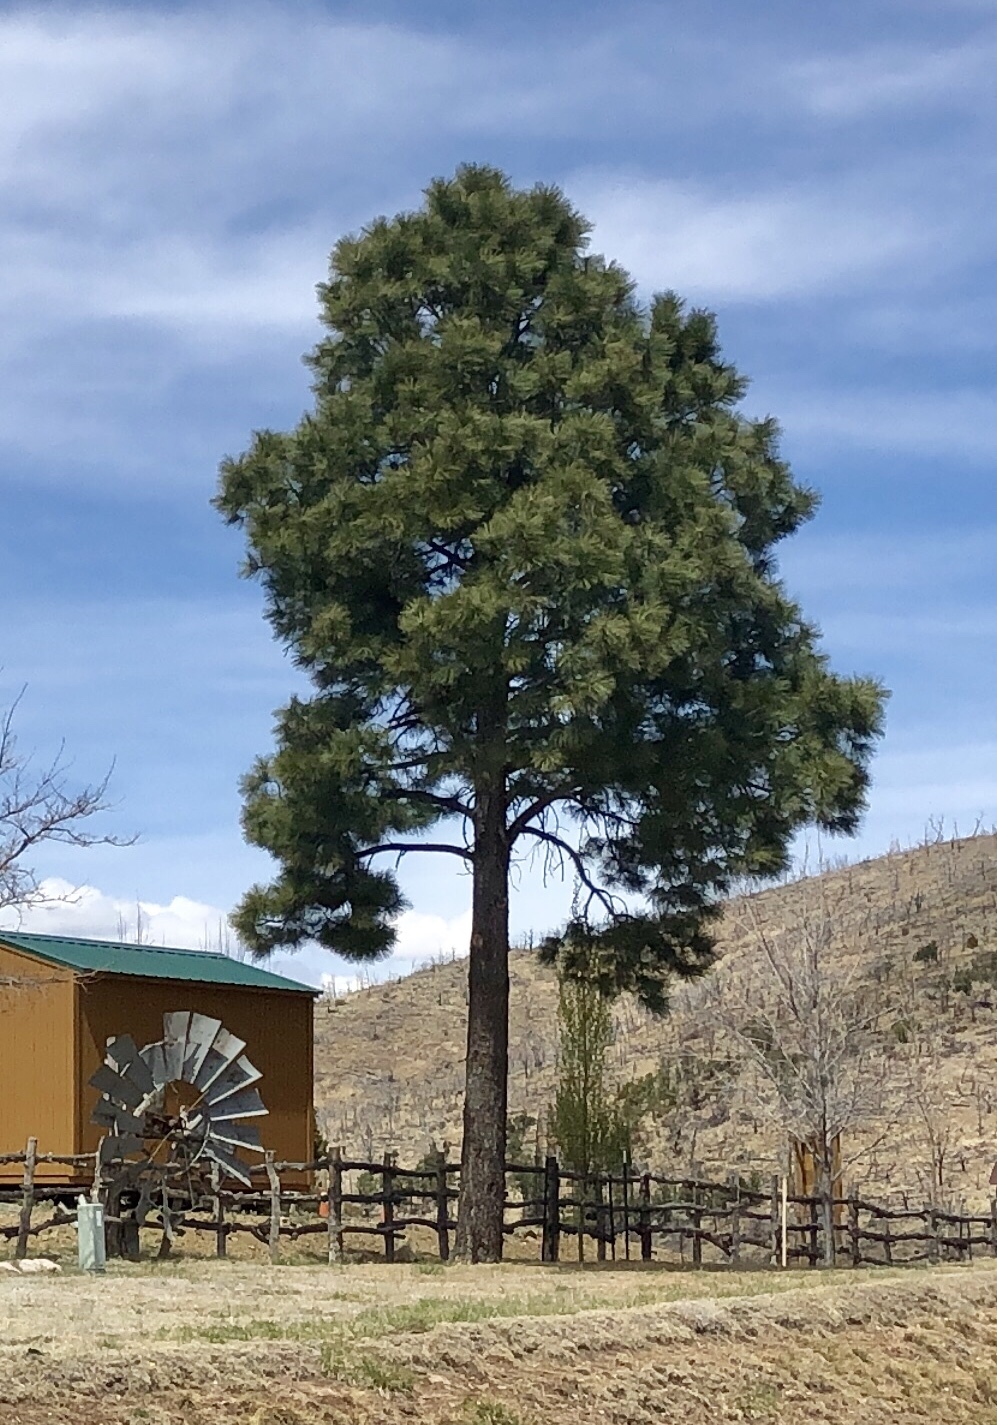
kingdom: Plantae
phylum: Tracheophyta
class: Pinopsida
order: Pinales
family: Pinaceae
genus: Pinus
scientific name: Pinus ponderosa
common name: Western yellow-pine
